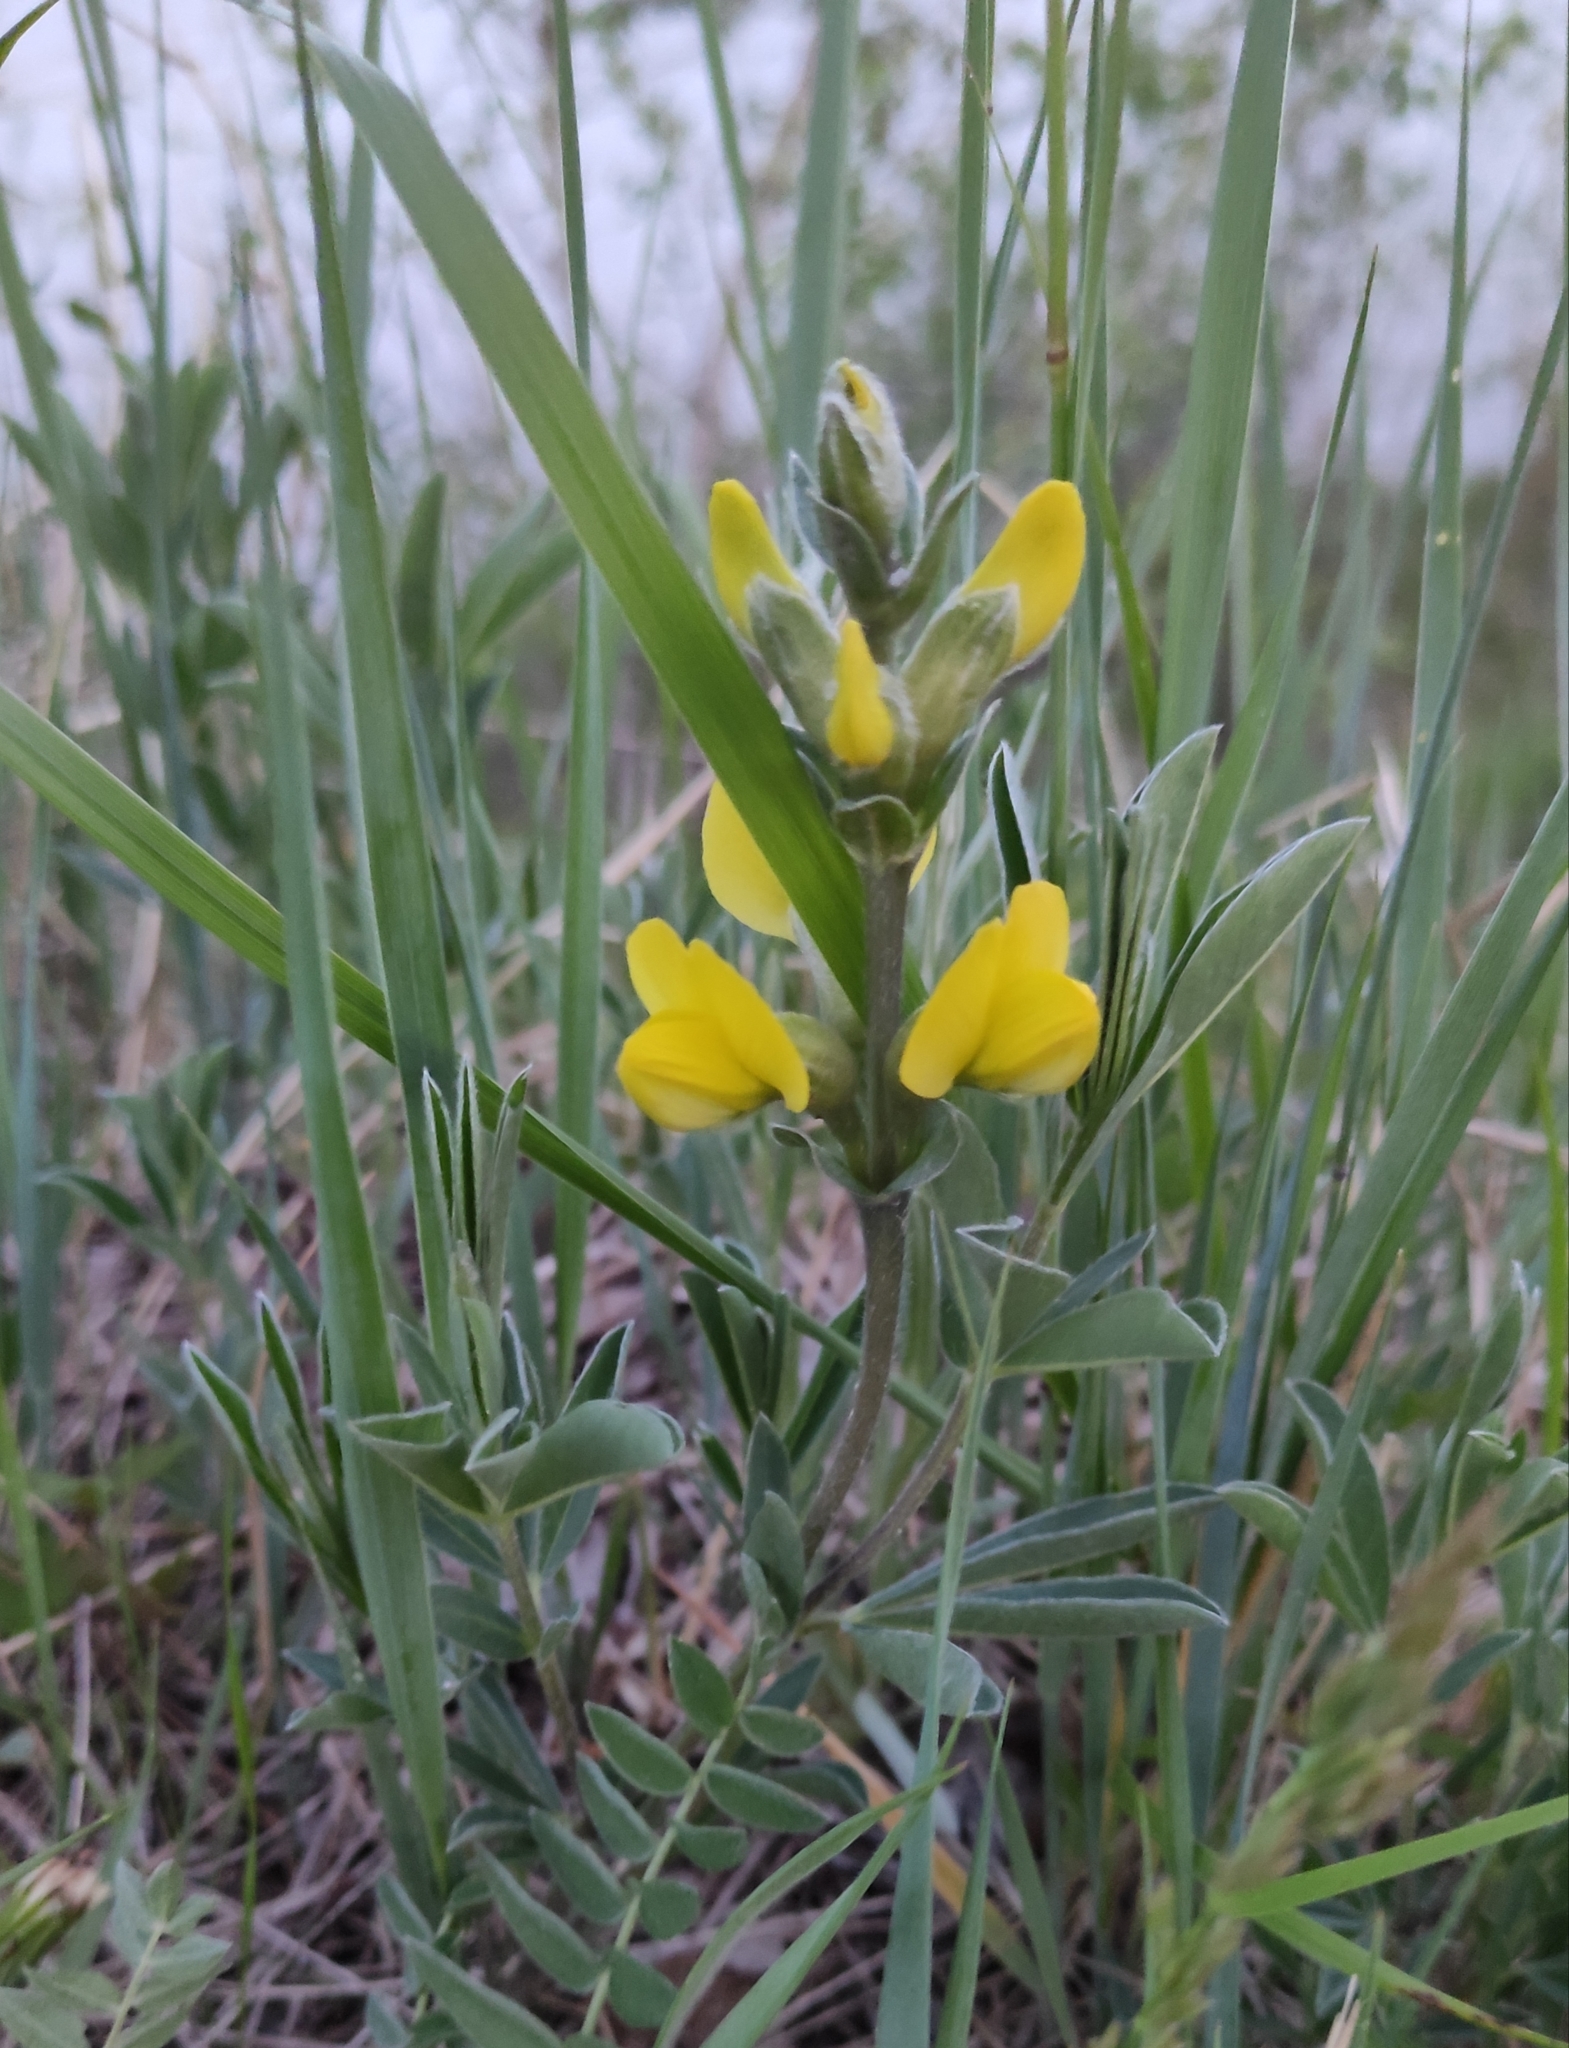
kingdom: Plantae
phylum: Tracheophyta
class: Magnoliopsida
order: Fabales
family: Fabaceae
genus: Thermopsis
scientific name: Thermopsis lanceolata
